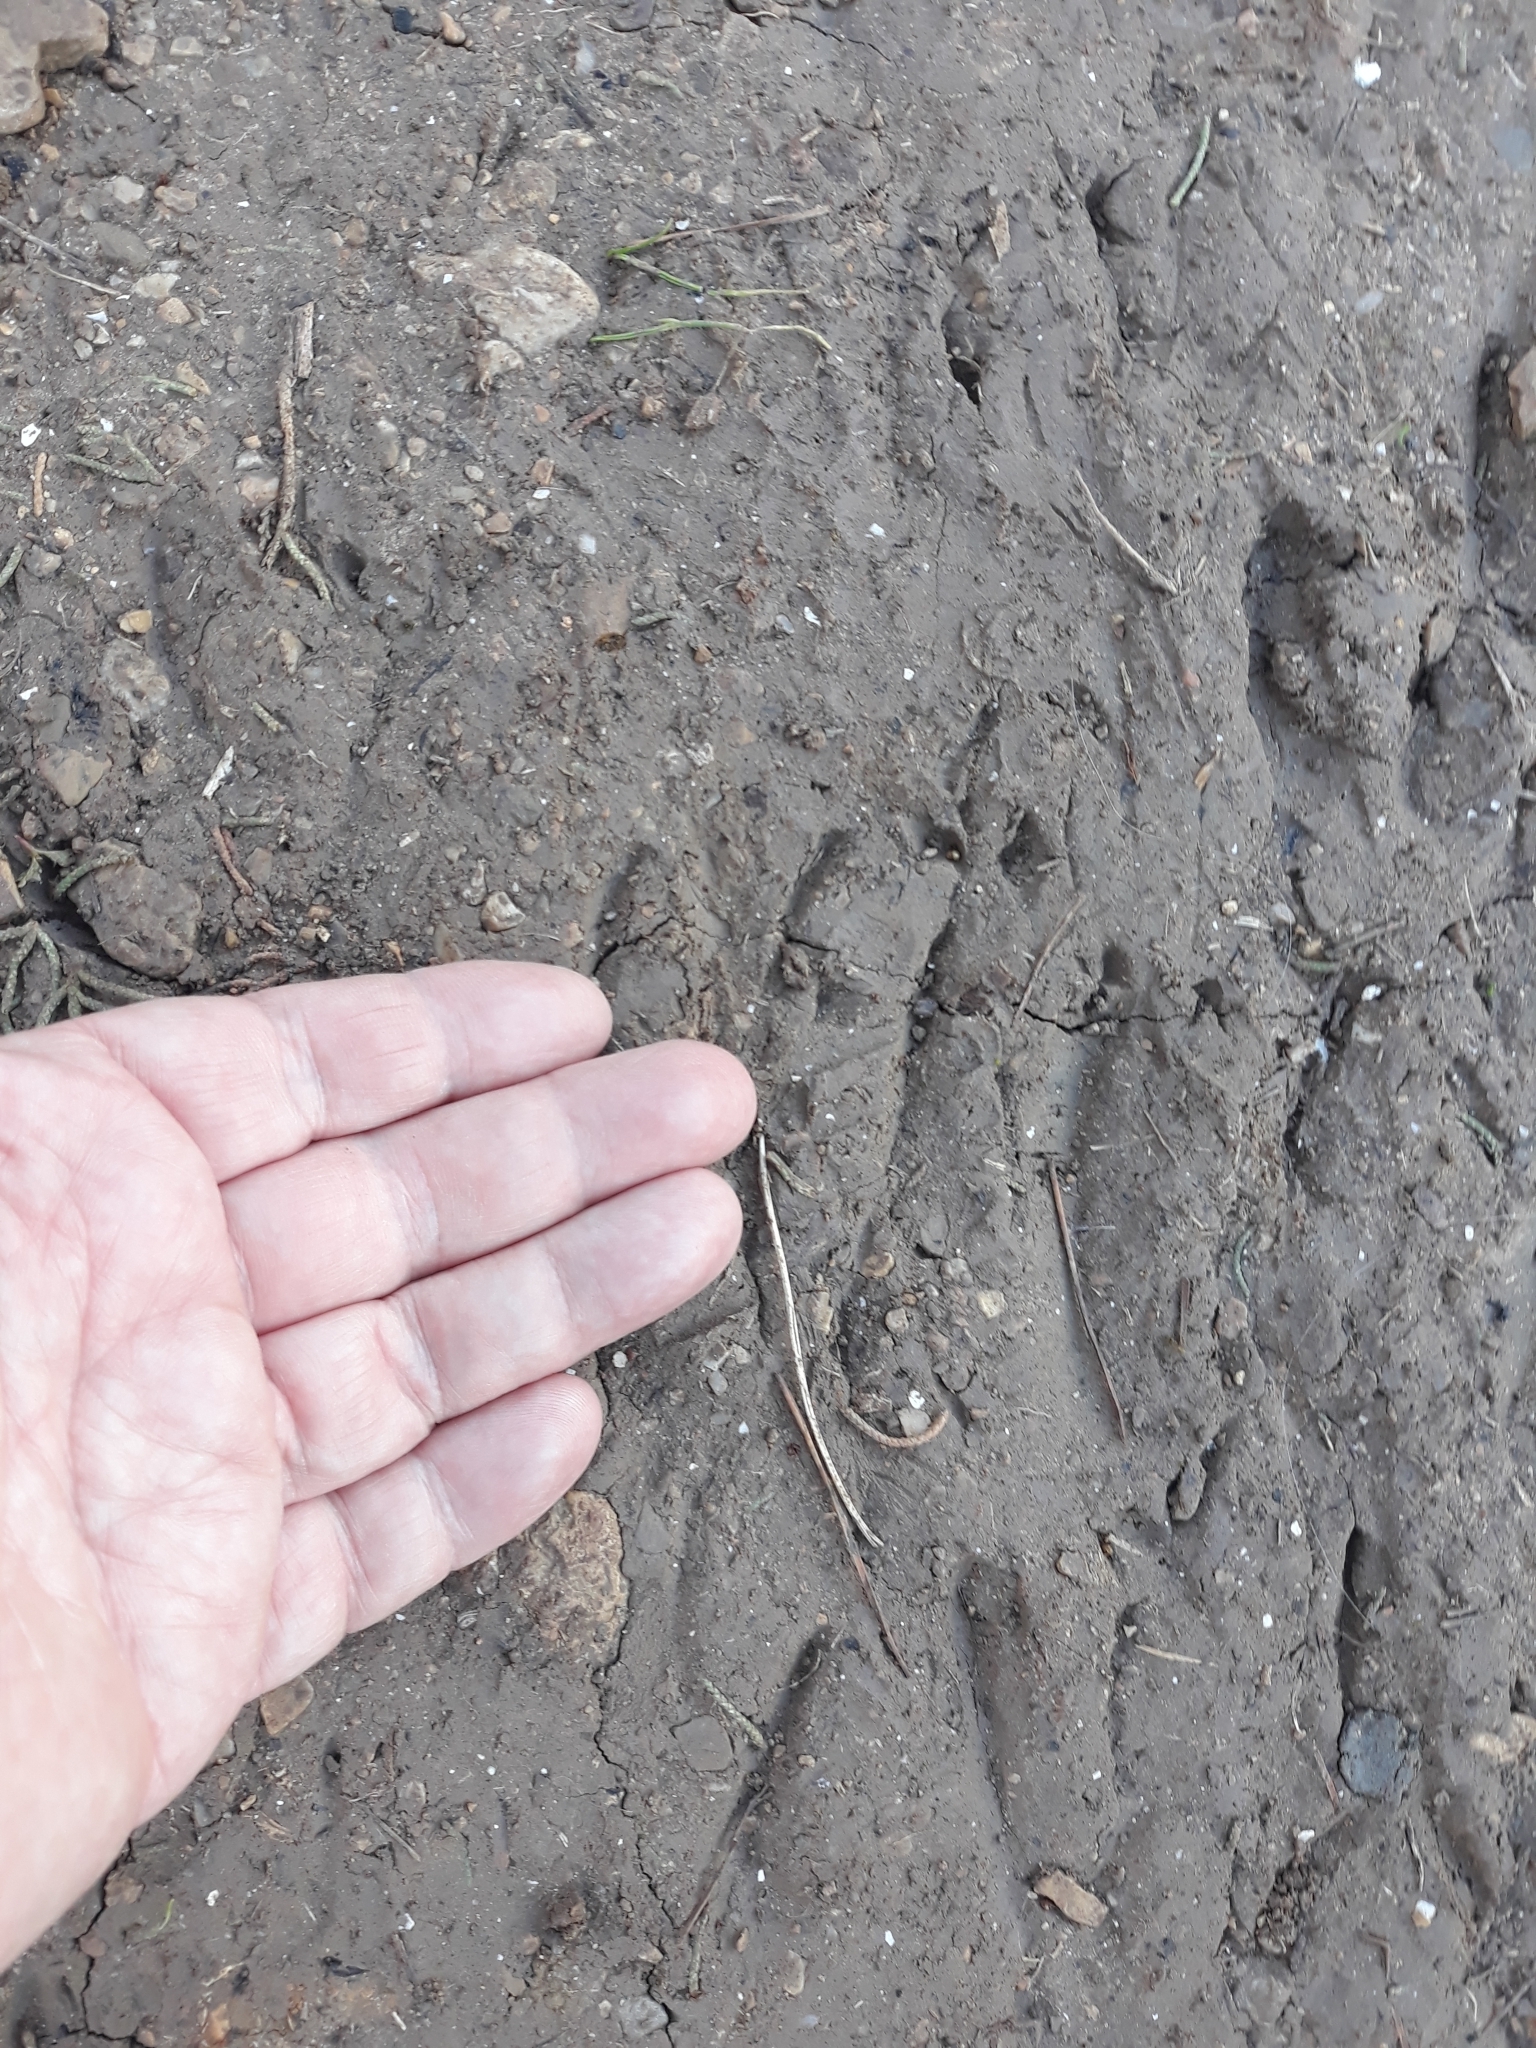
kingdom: Animalia
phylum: Chordata
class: Mammalia
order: Rodentia
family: Hystricidae
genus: Hystrix
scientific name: Hystrix cristata
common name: Crested porcupine
